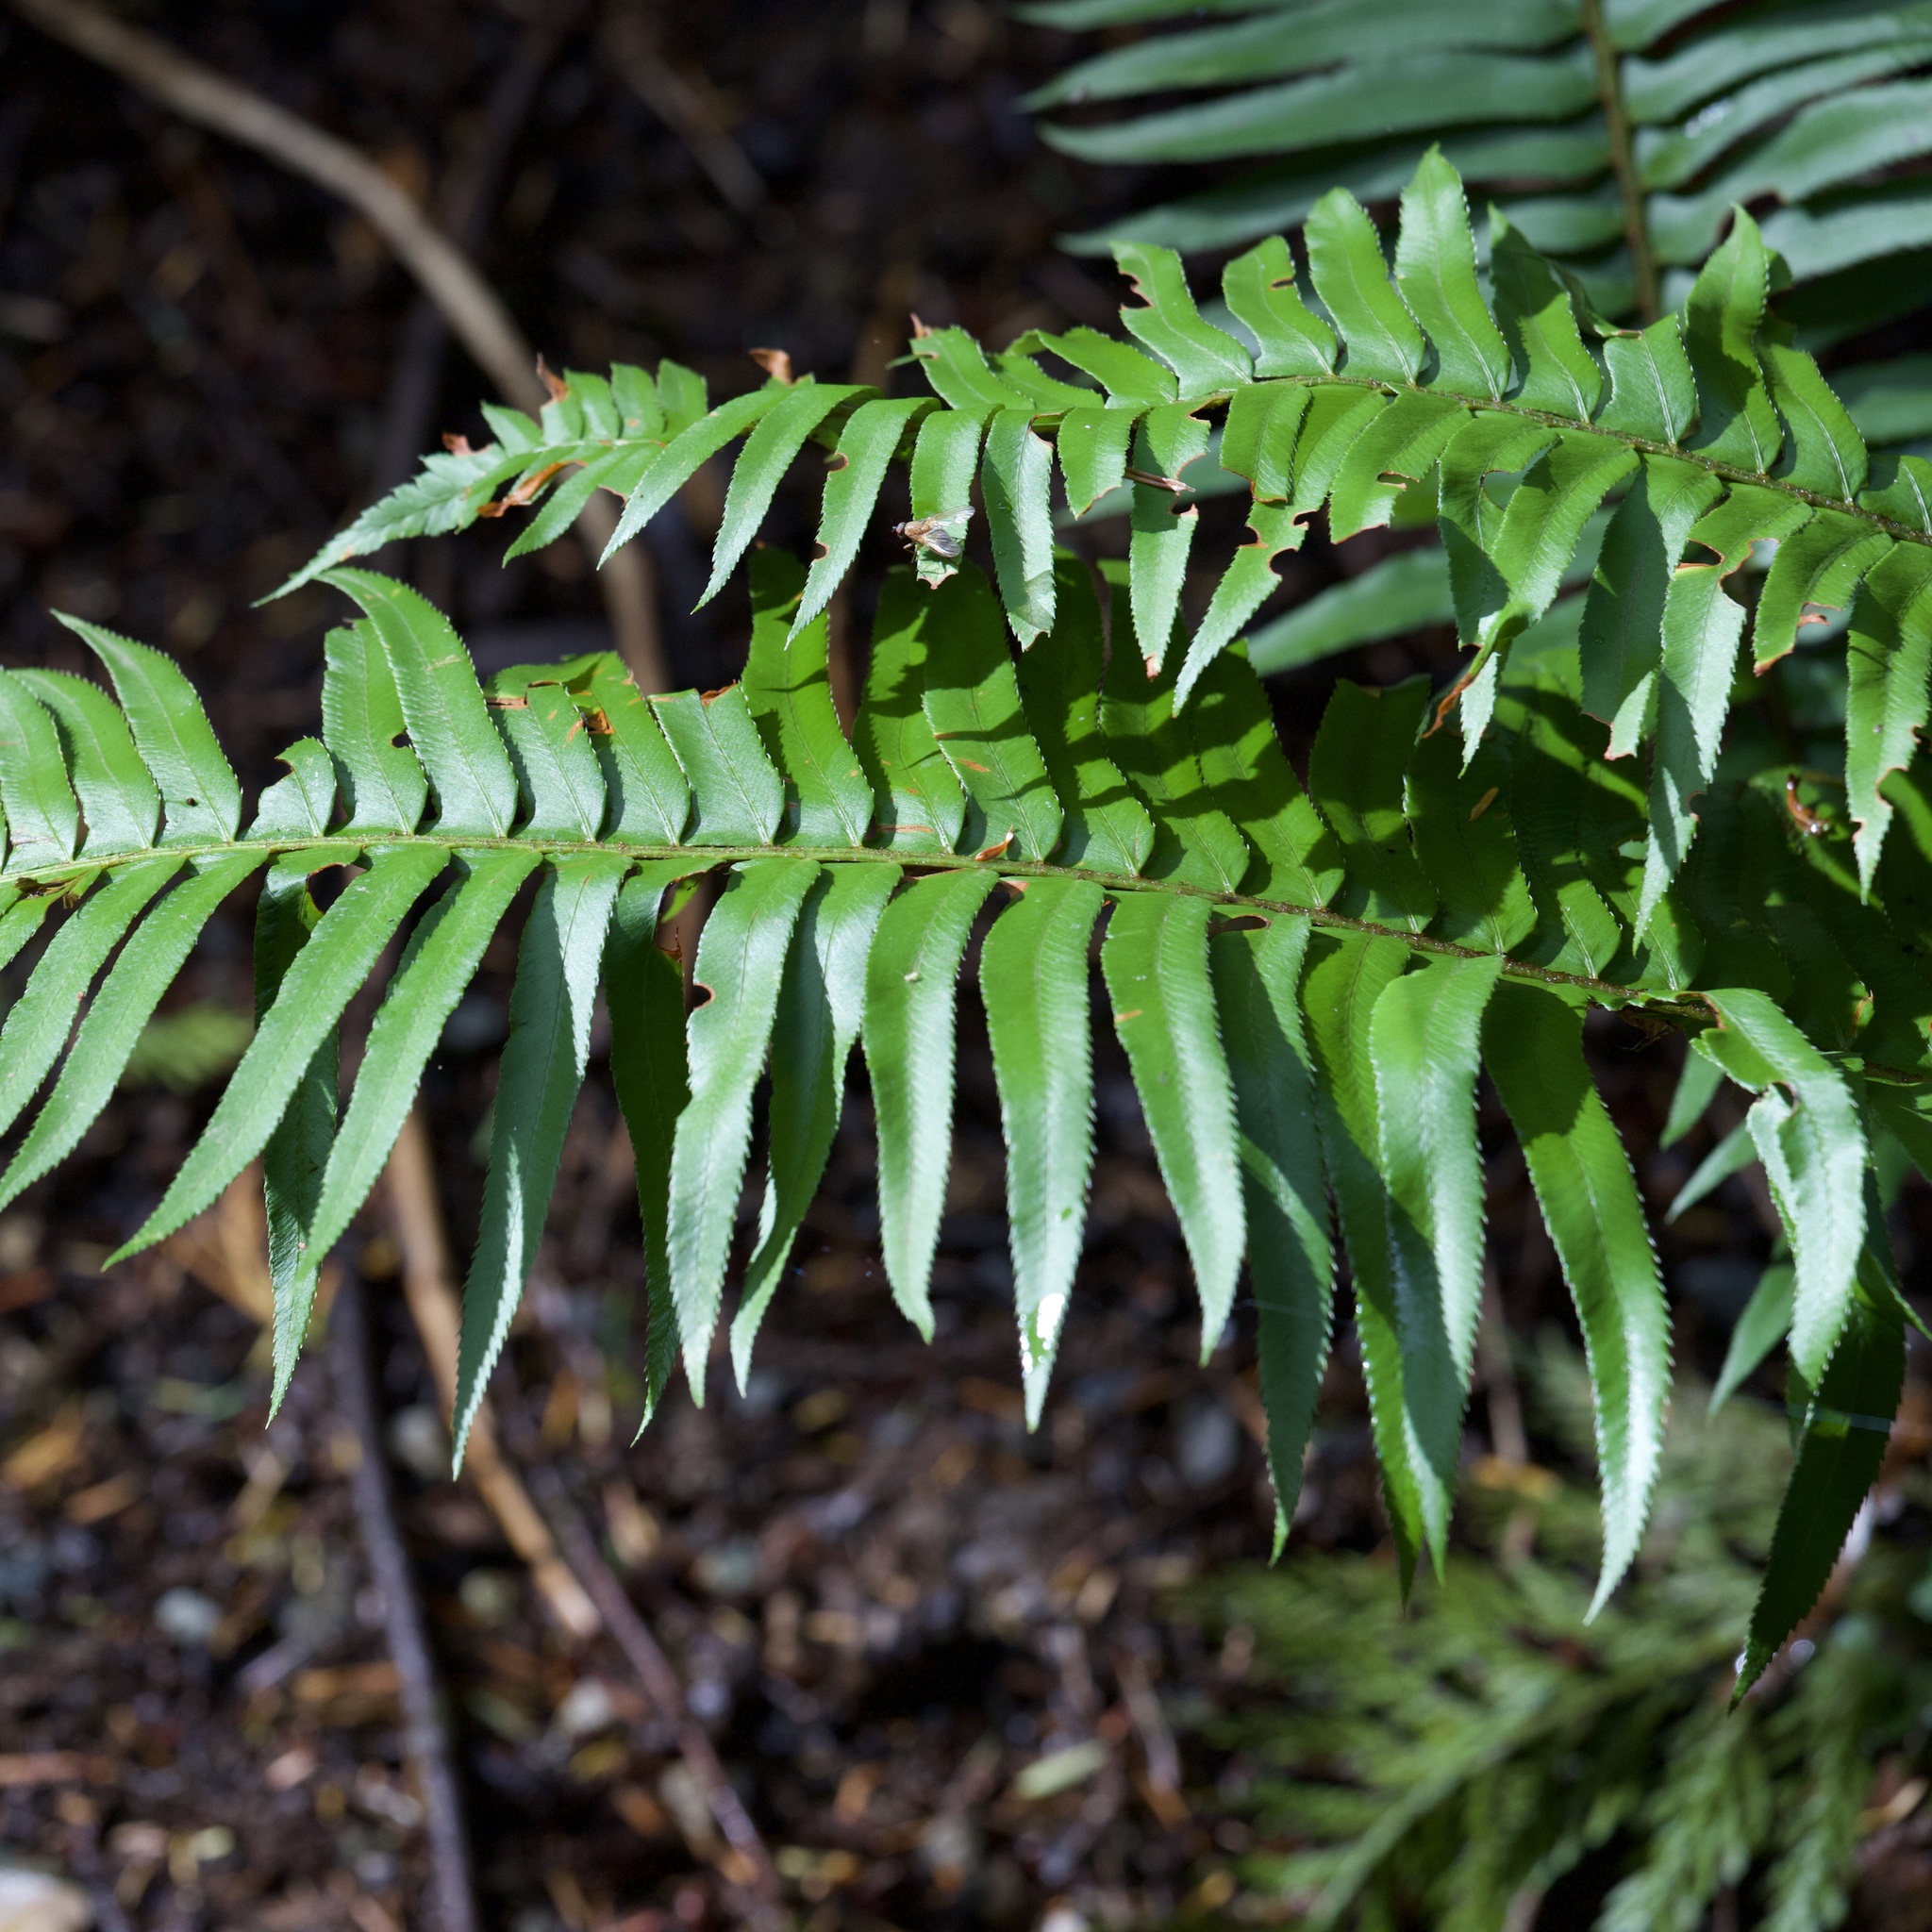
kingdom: Plantae
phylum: Tracheophyta
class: Polypodiopsida
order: Polypodiales
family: Dryopteridaceae
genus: Polystichum
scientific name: Polystichum munitum
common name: Western sword-fern
